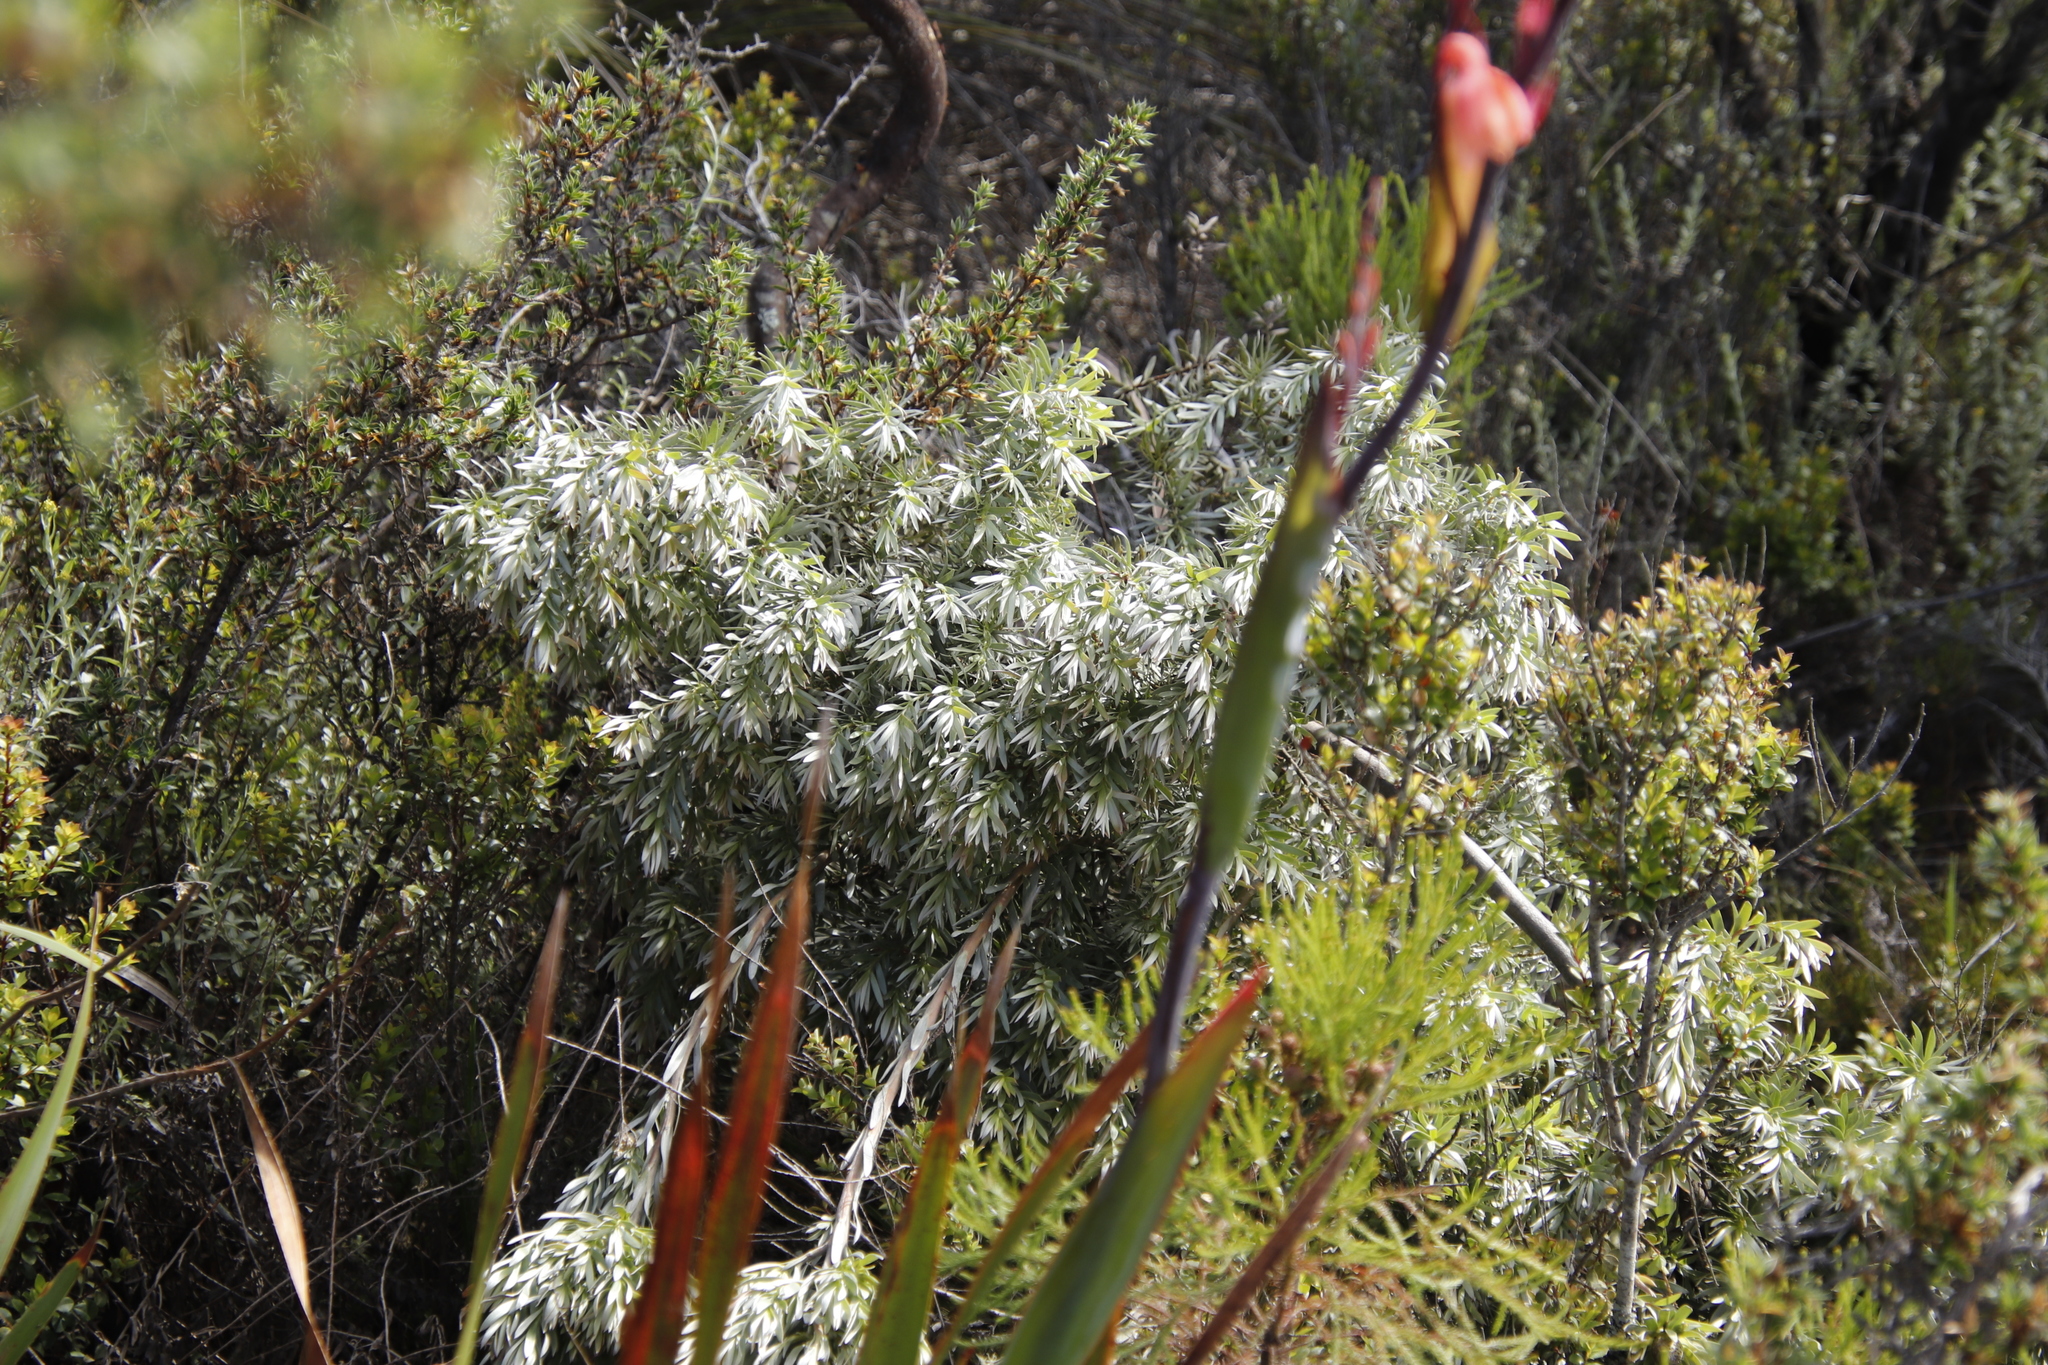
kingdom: Plantae
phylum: Tracheophyta
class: Magnoliopsida
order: Proteales
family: Proteaceae
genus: Leucadendron
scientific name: Leucadendron uliginosum
